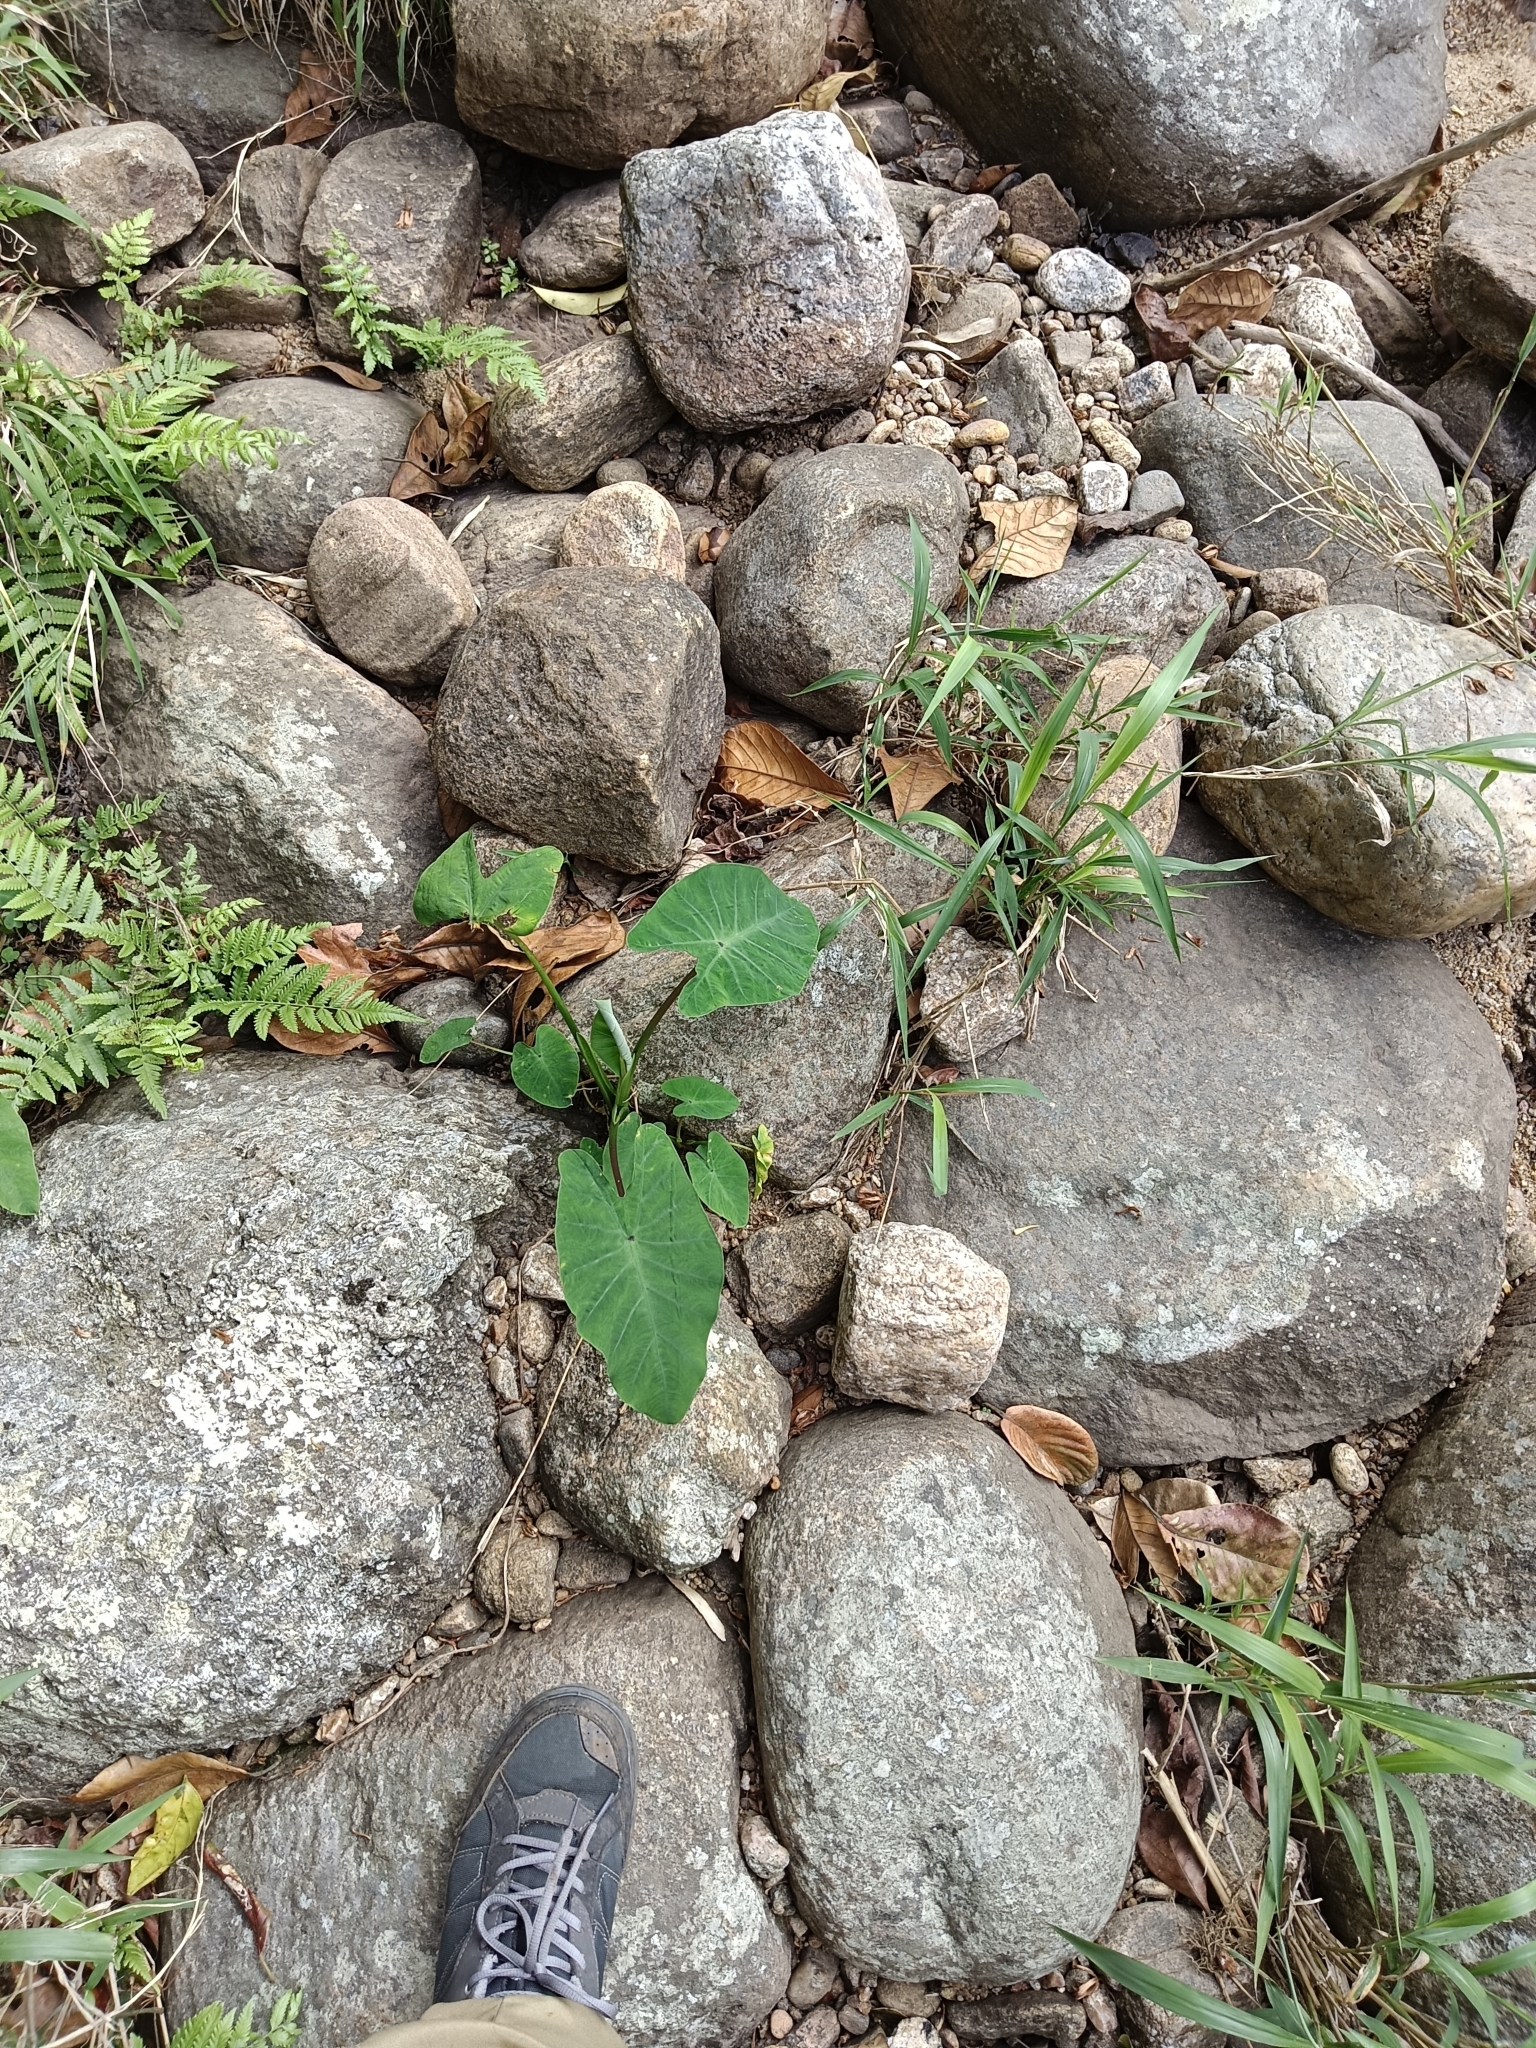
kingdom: Plantae
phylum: Tracheophyta
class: Liliopsida
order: Alismatales
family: Araceae
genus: Colocasia
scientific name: Colocasia esculenta
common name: Taro
